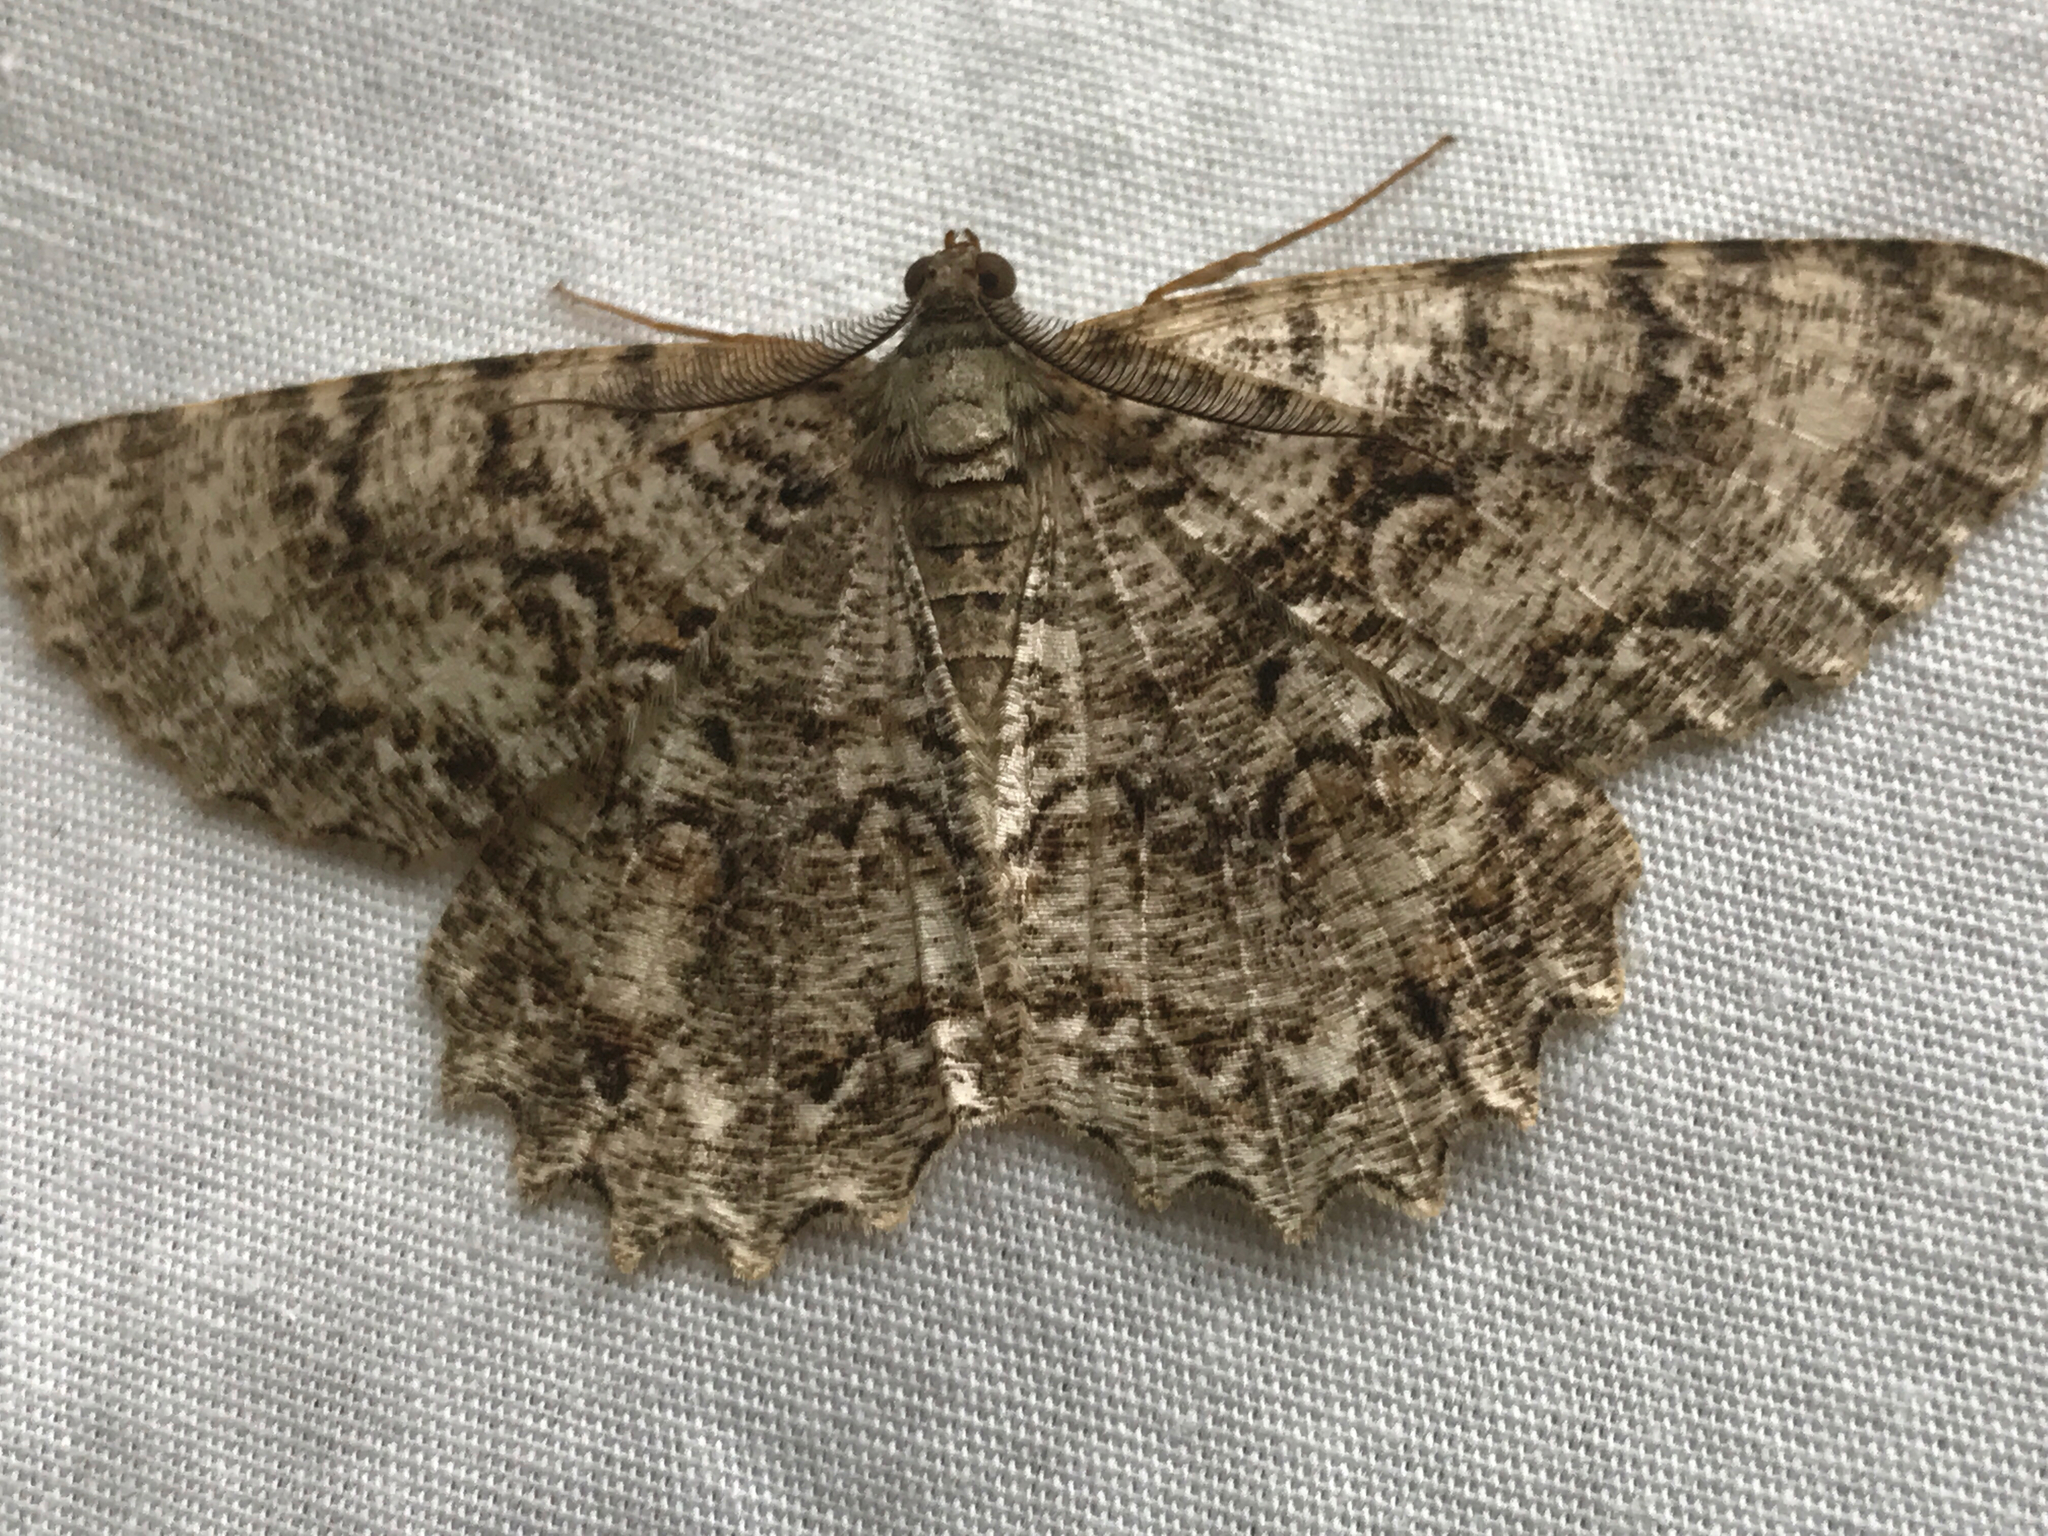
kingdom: Animalia
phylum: Arthropoda
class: Insecta
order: Lepidoptera
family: Geometridae
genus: Epimecis
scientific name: Epimecis hortaria
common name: Tulip-tree beauty
